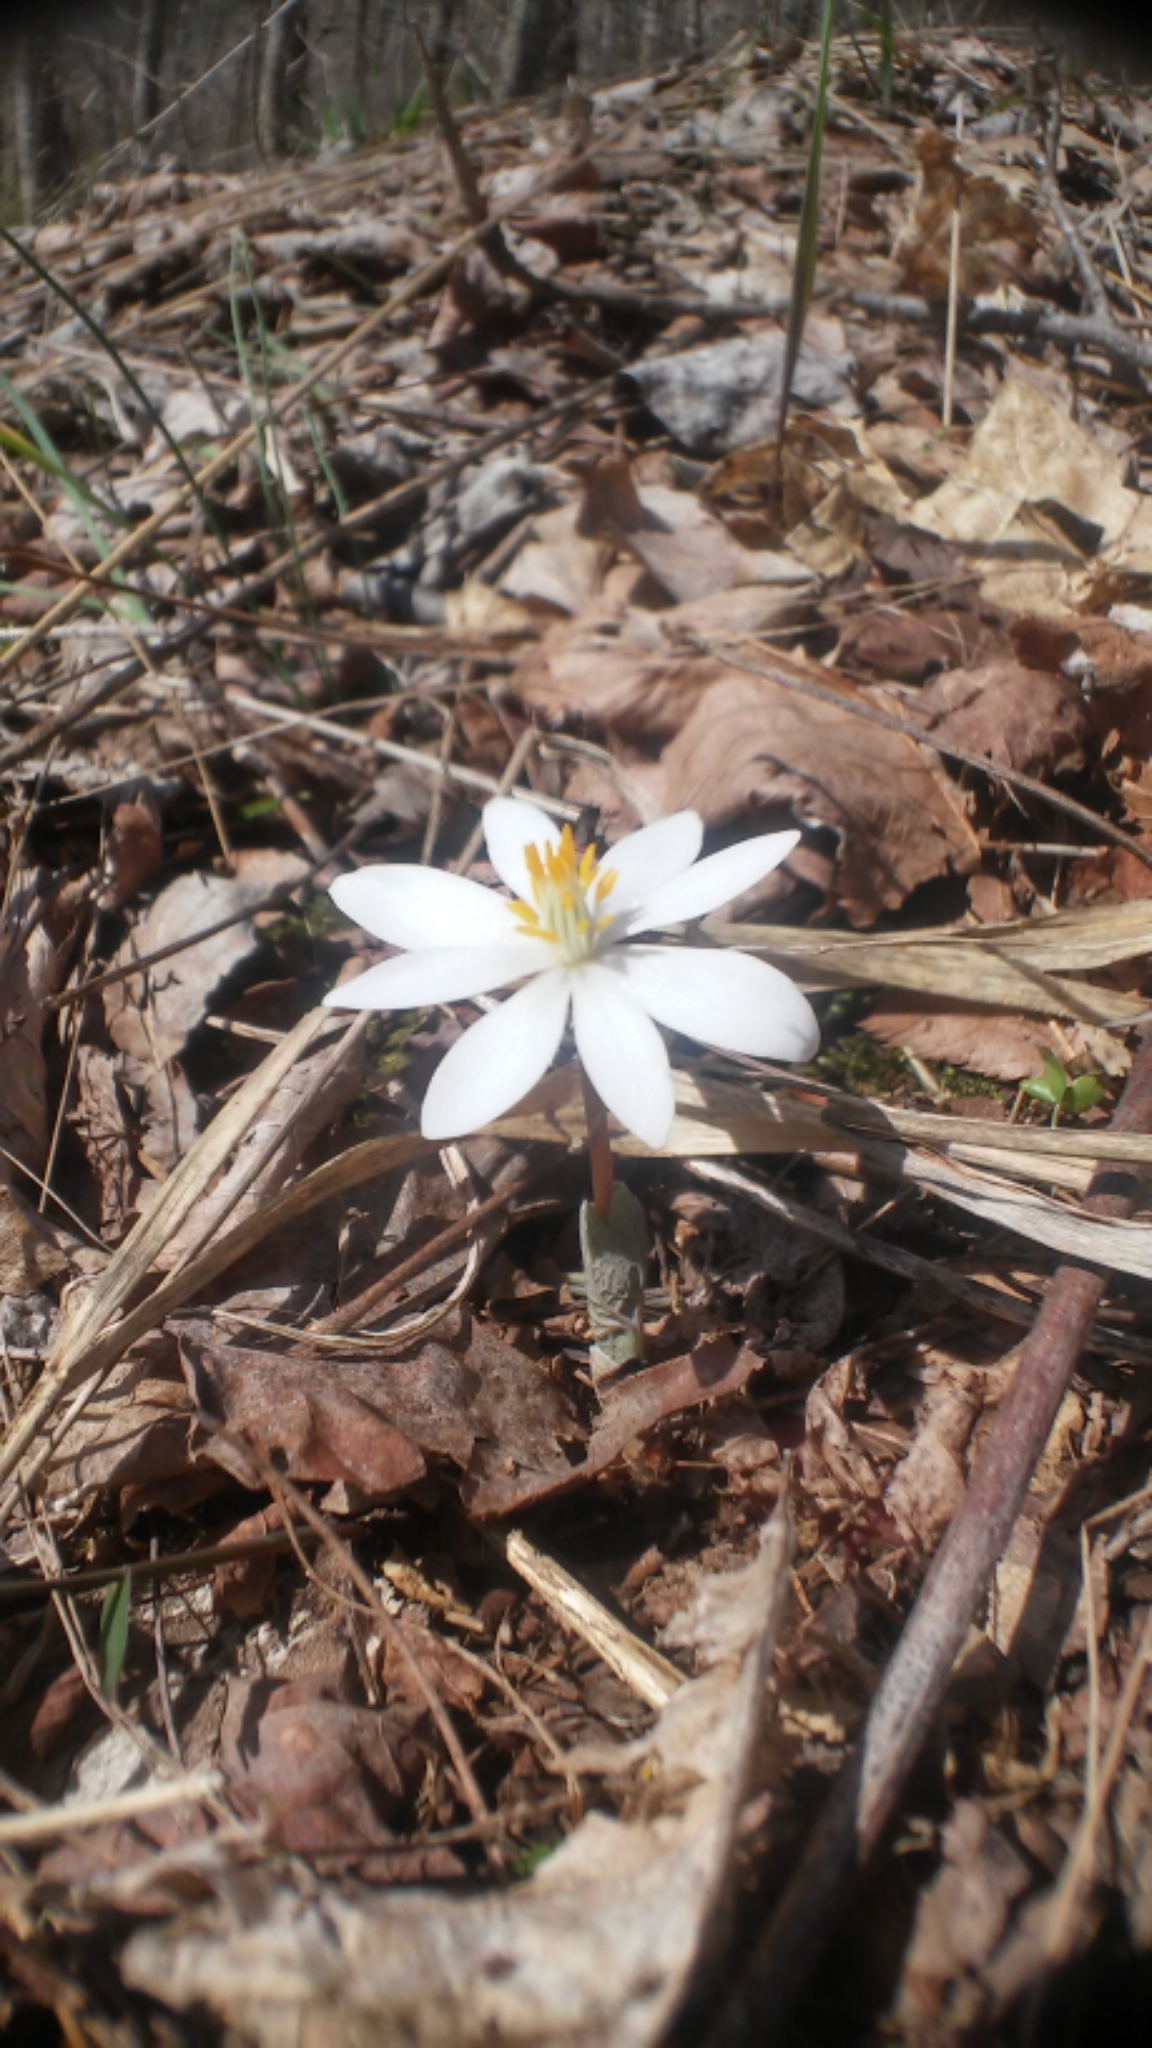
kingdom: Plantae
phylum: Tracheophyta
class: Magnoliopsida
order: Ranunculales
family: Papaveraceae
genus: Sanguinaria
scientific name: Sanguinaria canadensis
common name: Bloodroot
